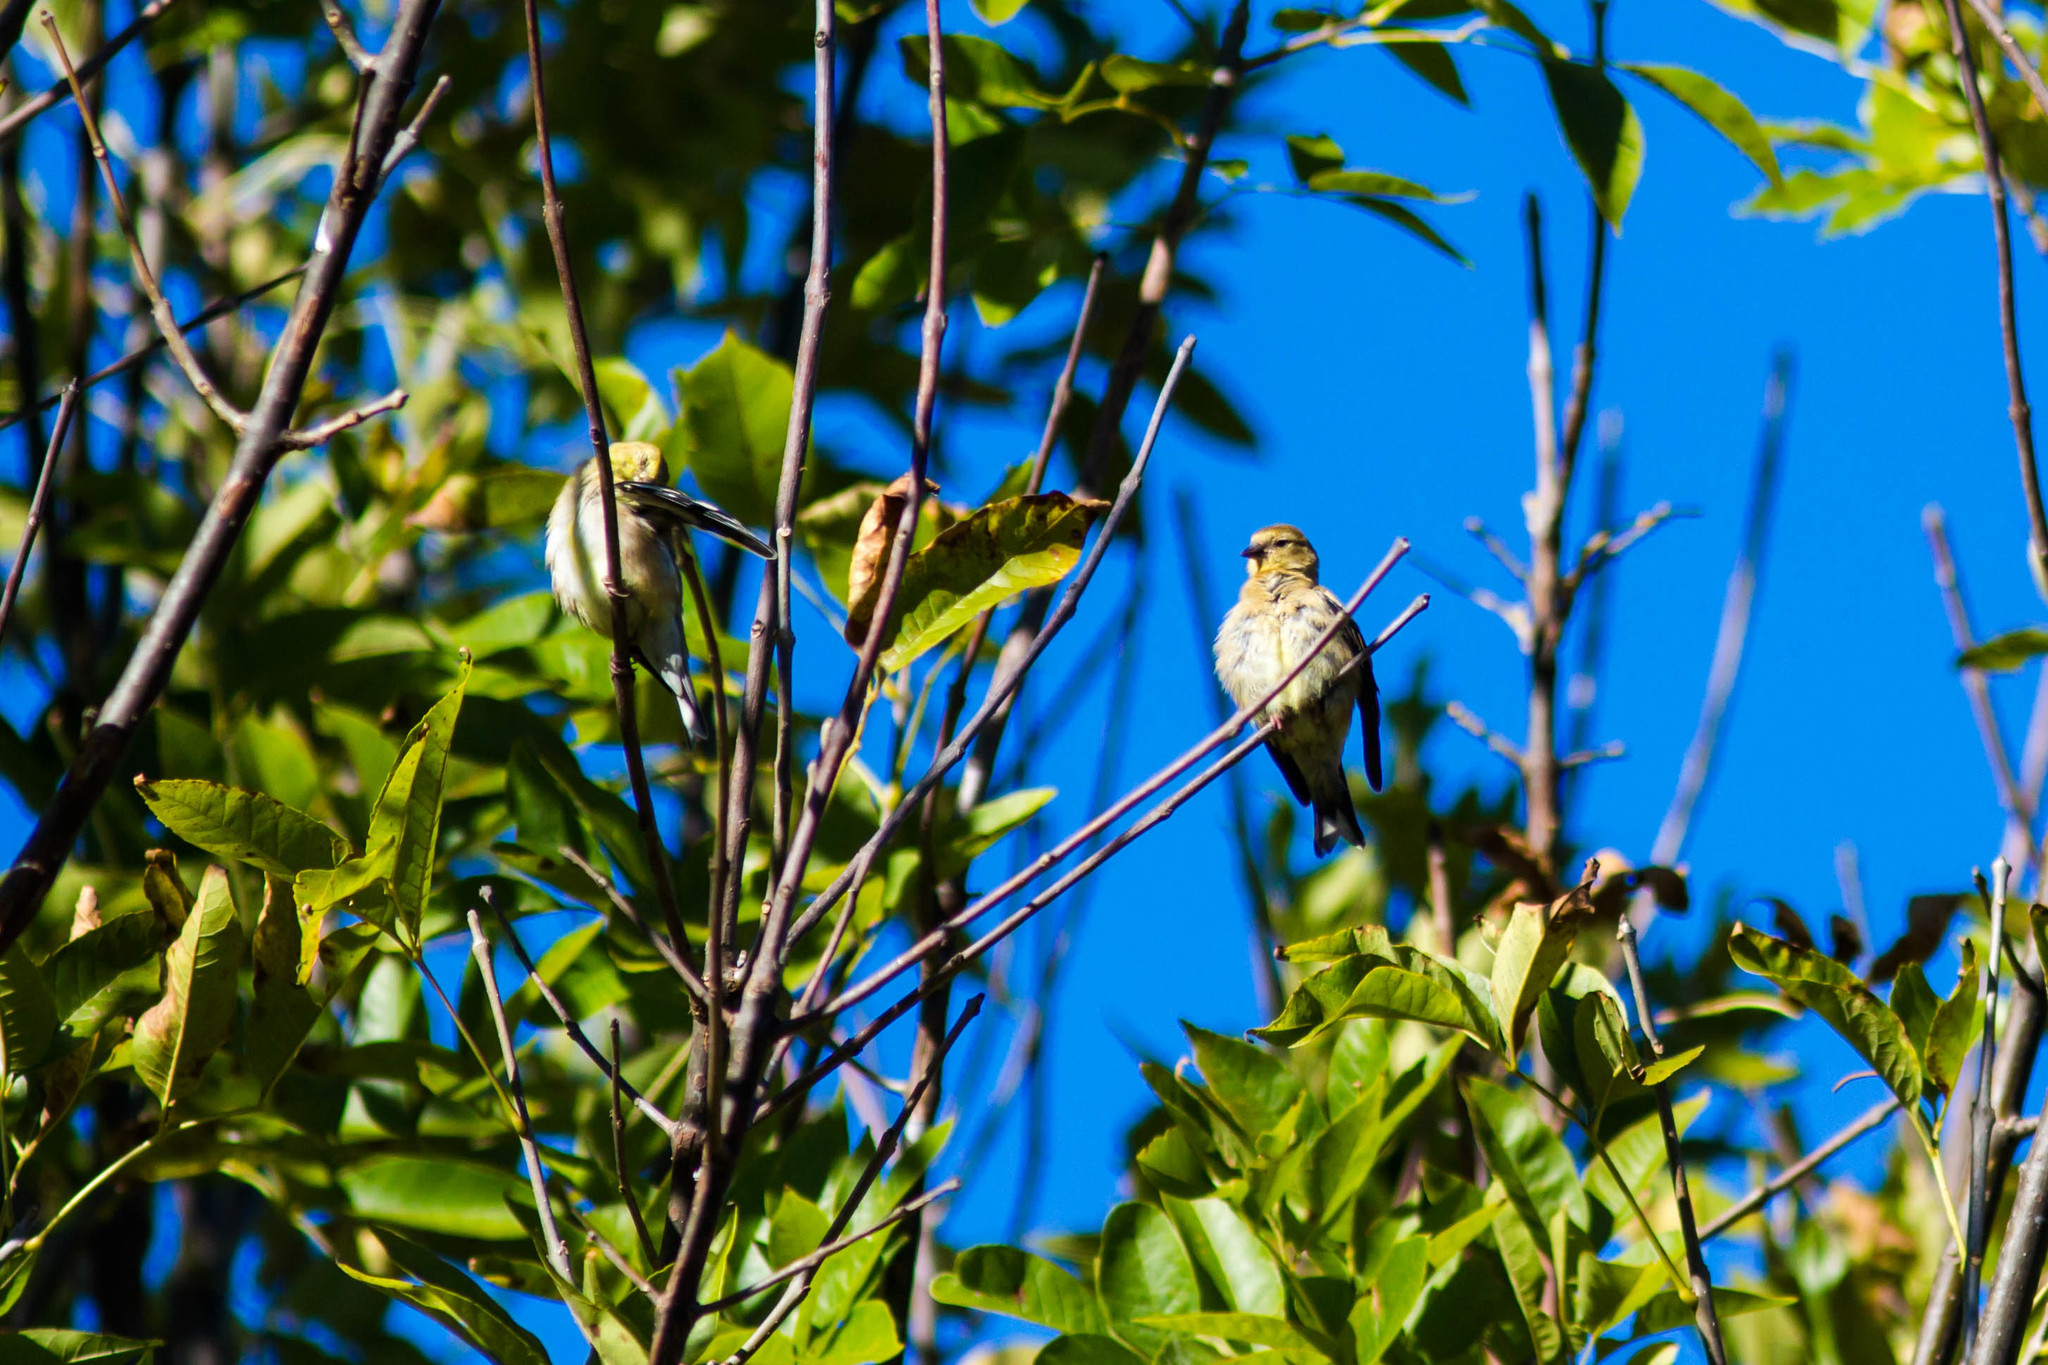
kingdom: Animalia
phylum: Chordata
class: Aves
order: Passeriformes
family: Fringillidae
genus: Spinus
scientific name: Spinus tristis
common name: American goldfinch
